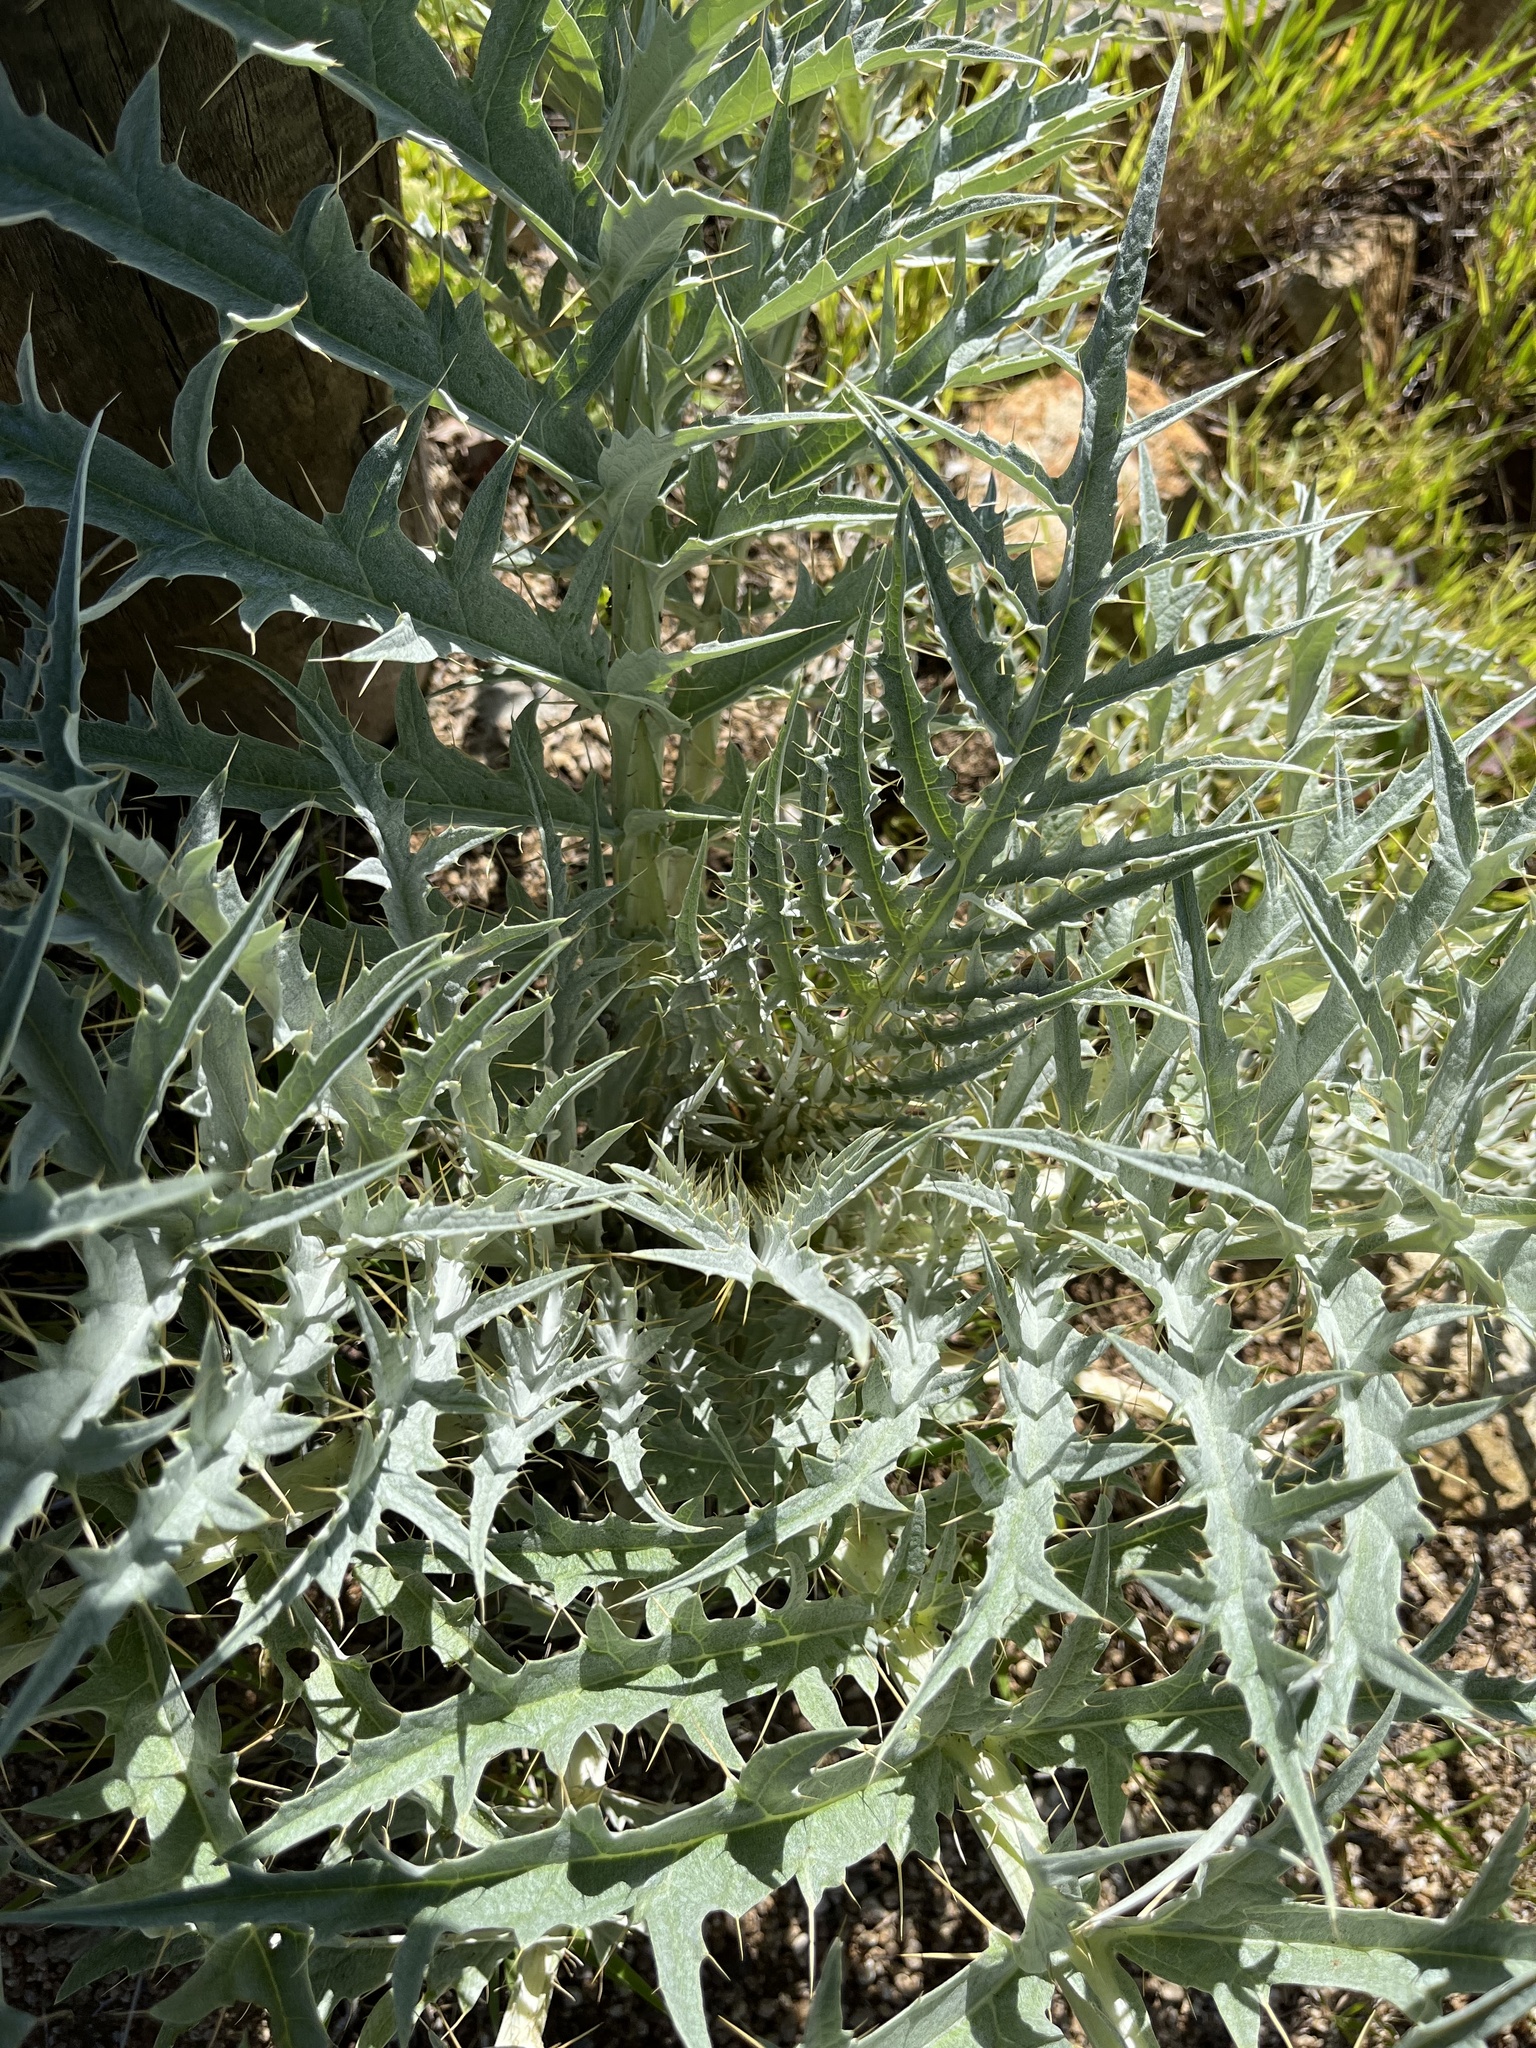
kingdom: Plantae
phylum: Tracheophyta
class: Magnoliopsida
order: Asterales
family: Asteraceae
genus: Cynara
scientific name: Cynara cardunculus
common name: Globe artichoke
